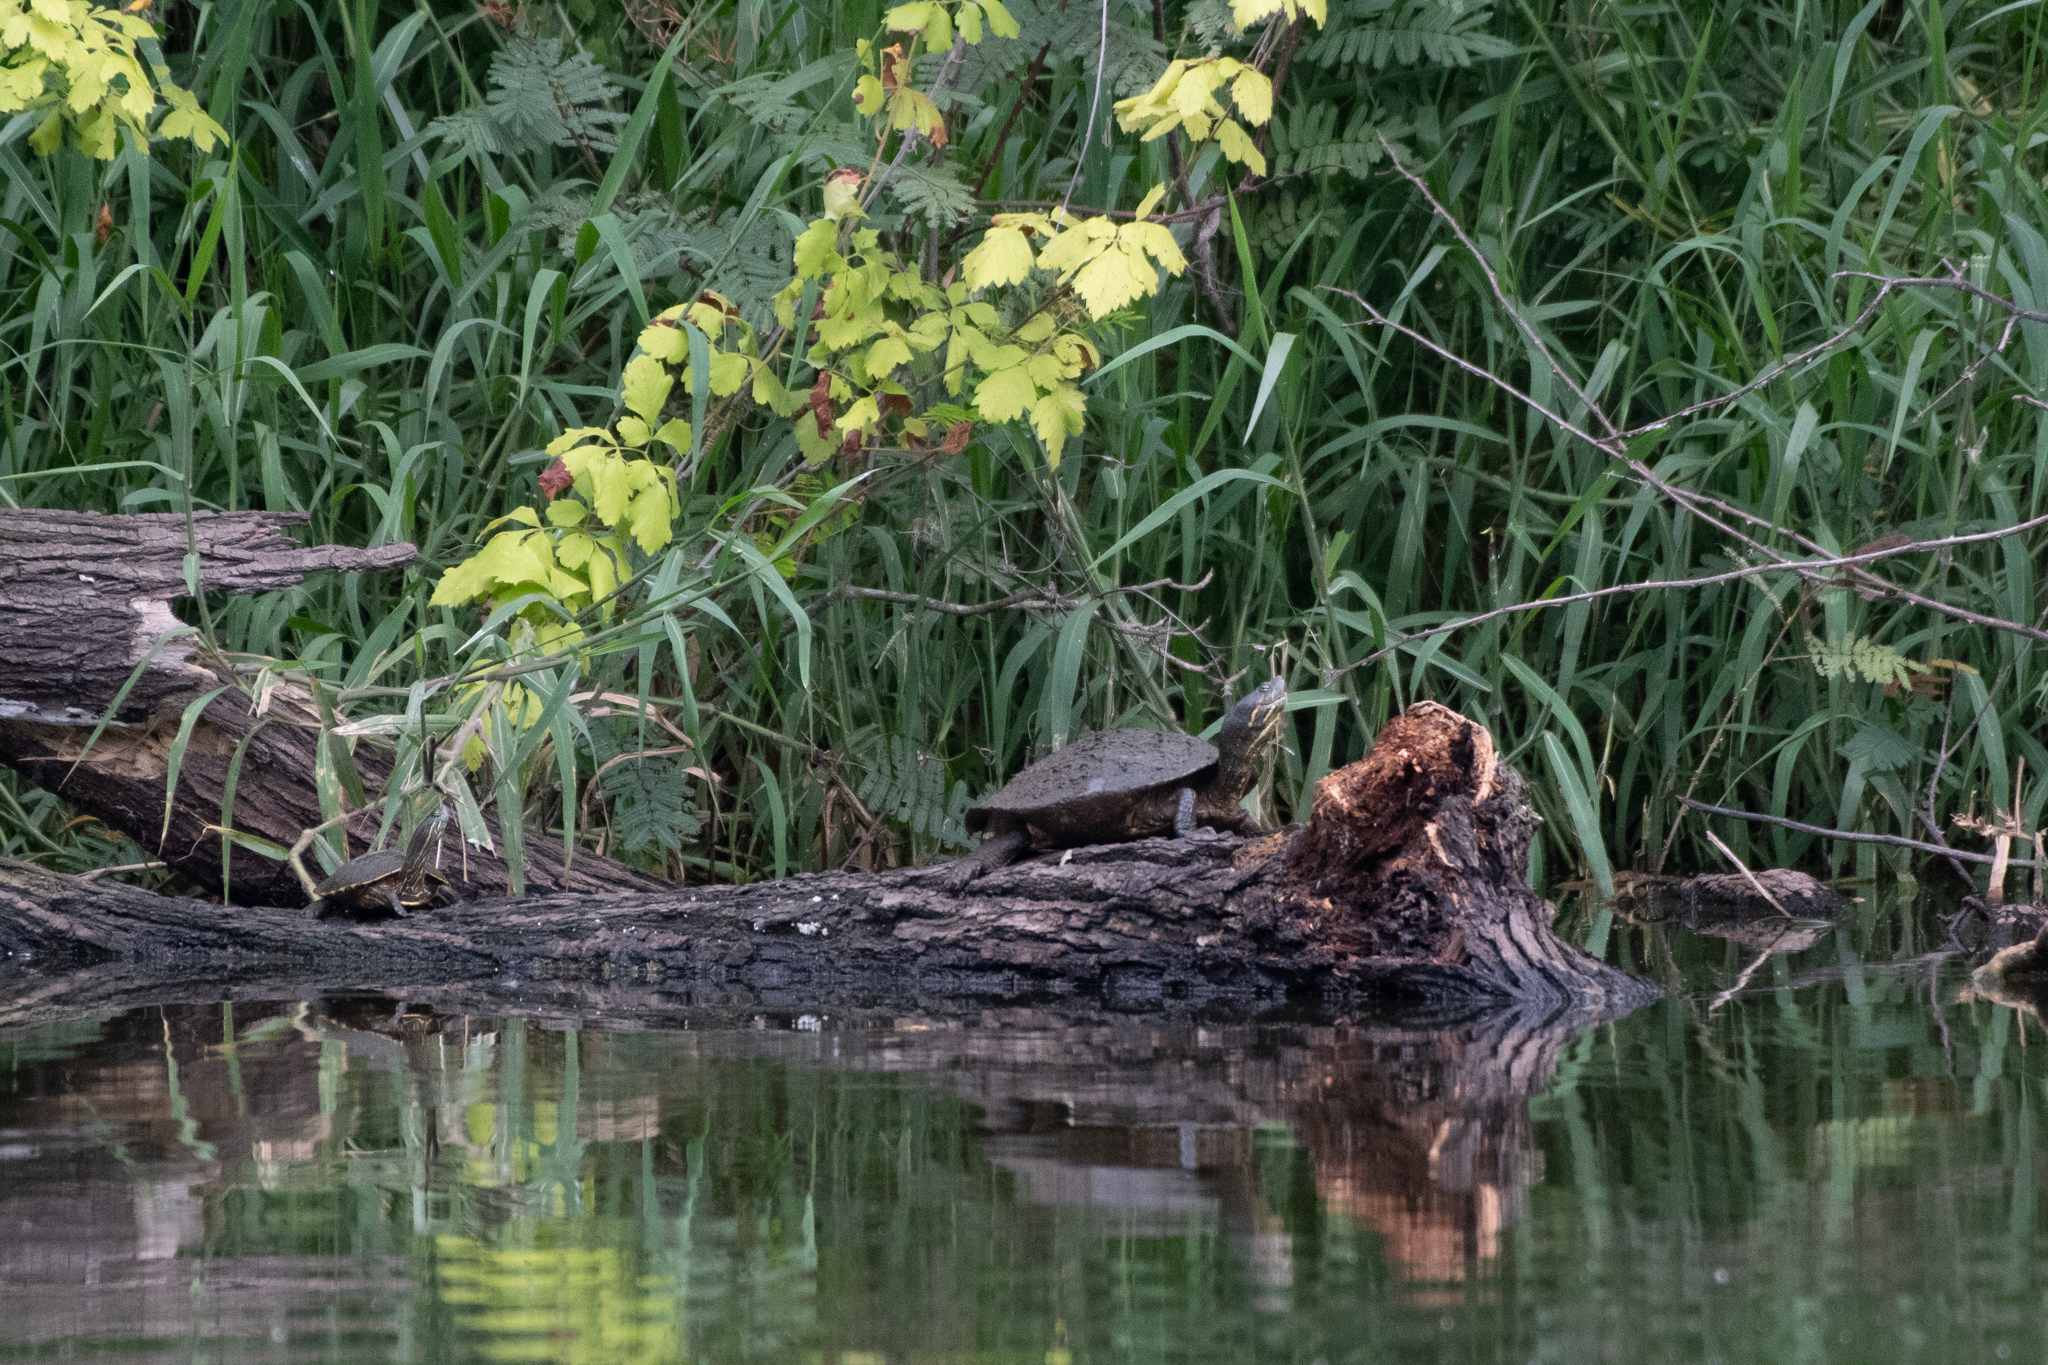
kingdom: Animalia
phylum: Chordata
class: Testudines
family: Emydidae
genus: Trachemys
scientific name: Trachemys venusta
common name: Mesoamerican slider
